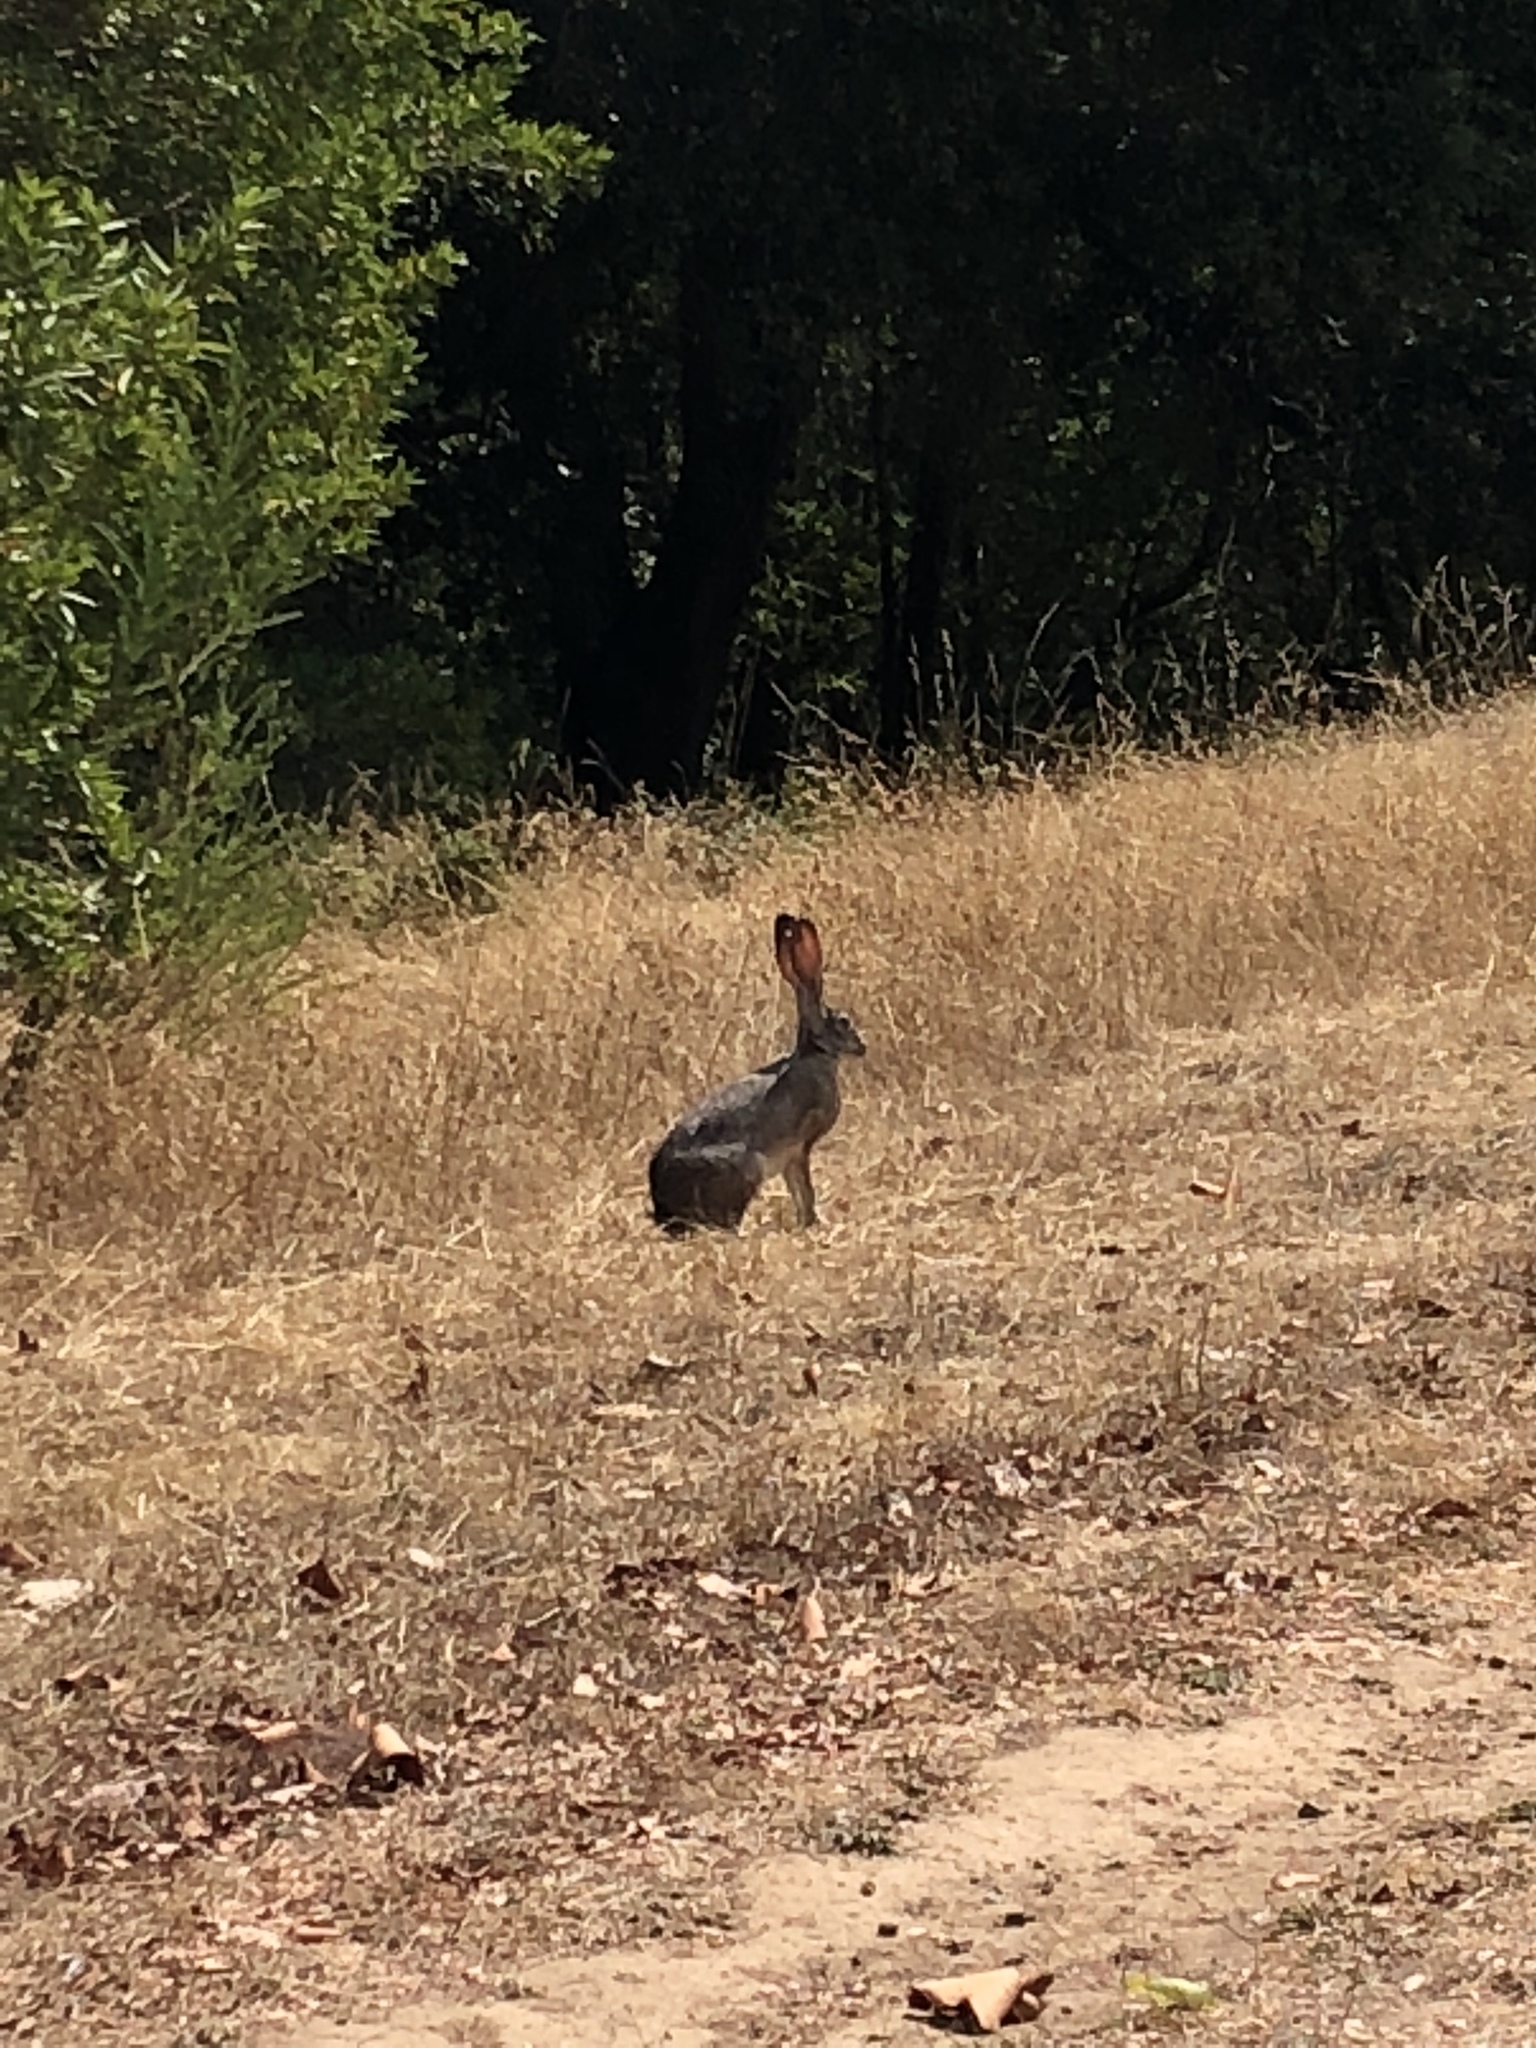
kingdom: Animalia
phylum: Chordata
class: Mammalia
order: Lagomorpha
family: Leporidae
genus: Lepus
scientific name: Lepus californicus
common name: Black-tailed jackrabbit
